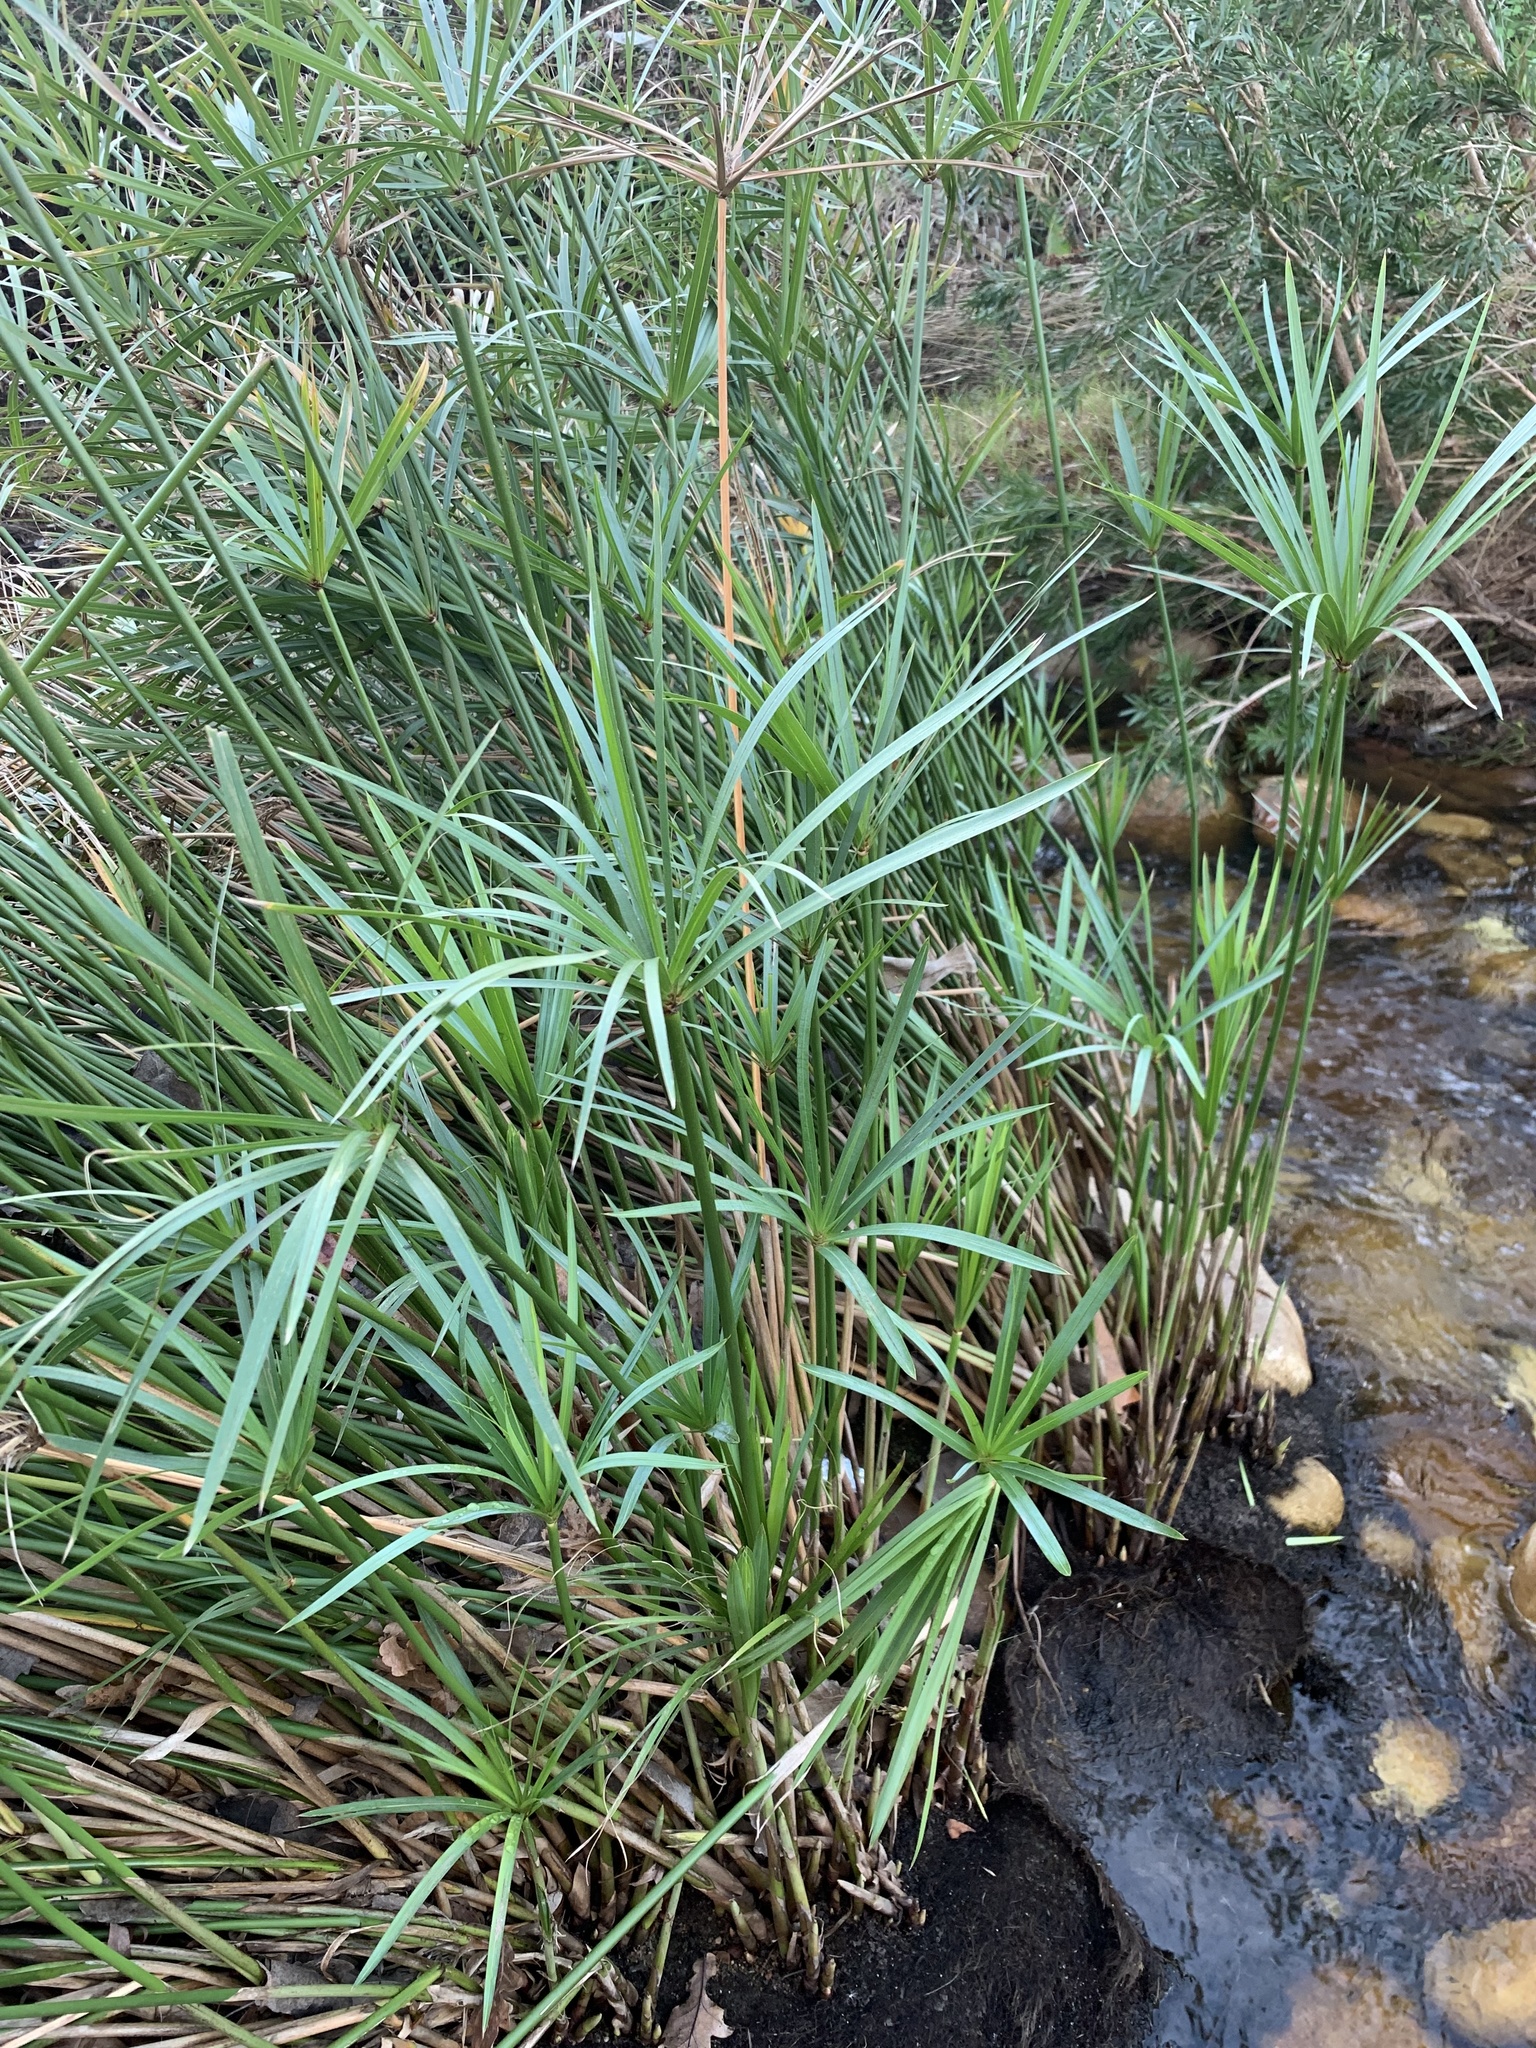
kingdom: Plantae
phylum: Tracheophyta
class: Liliopsida
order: Poales
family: Cyperaceae
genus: Cyperus
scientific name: Cyperus textilis
